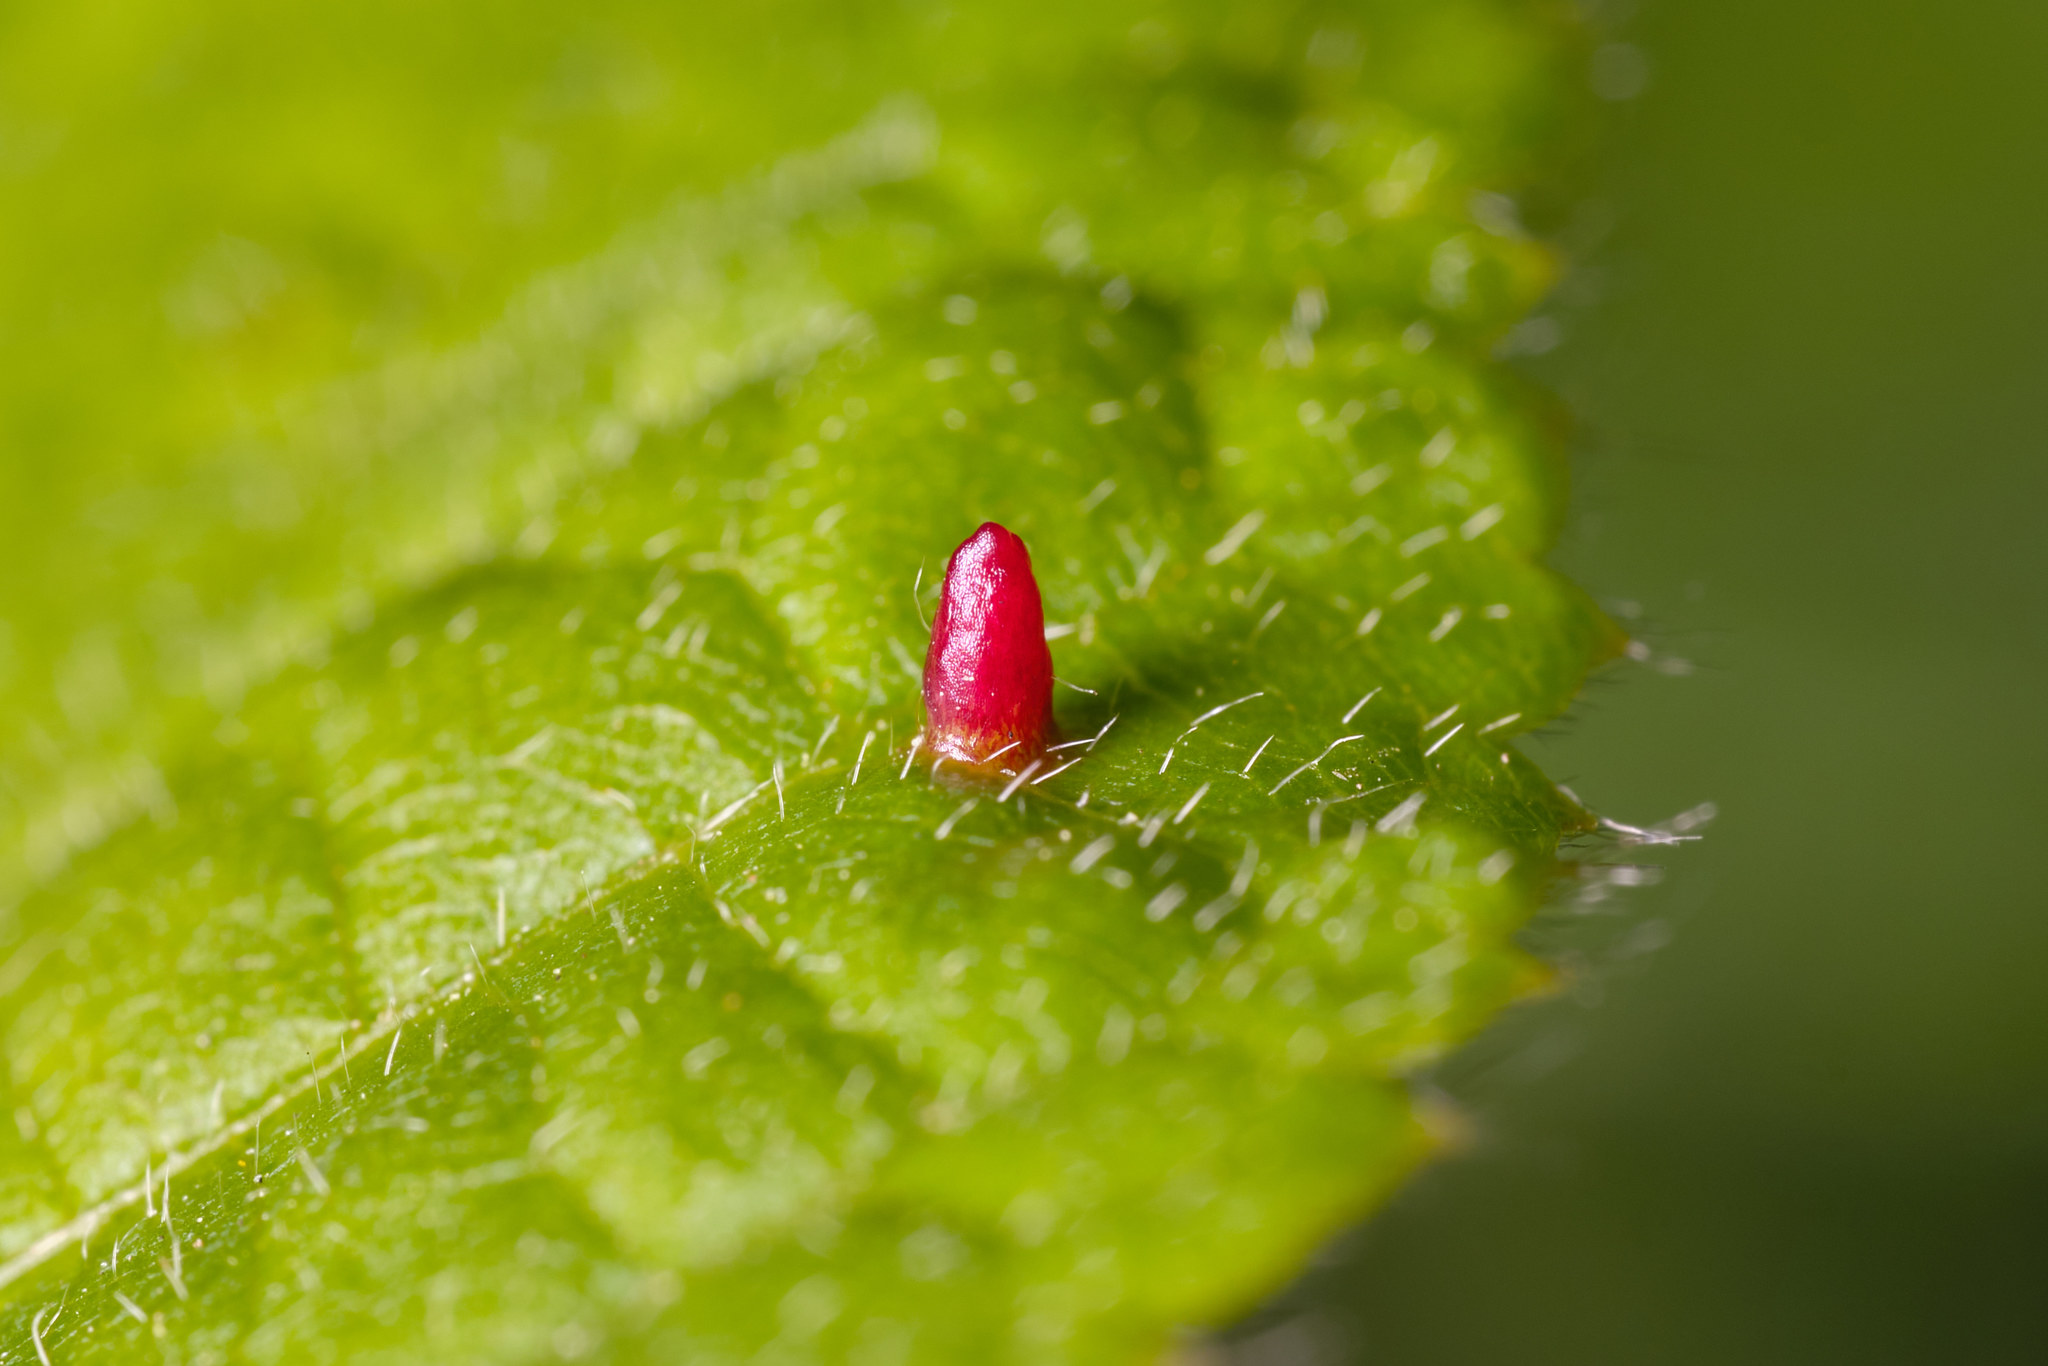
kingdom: Animalia
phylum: Arthropoda
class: Arachnida
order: Trombidiformes
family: Eriophyidae
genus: Eriophyes
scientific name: Eriophyes tiliae
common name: Red nail gall mite
